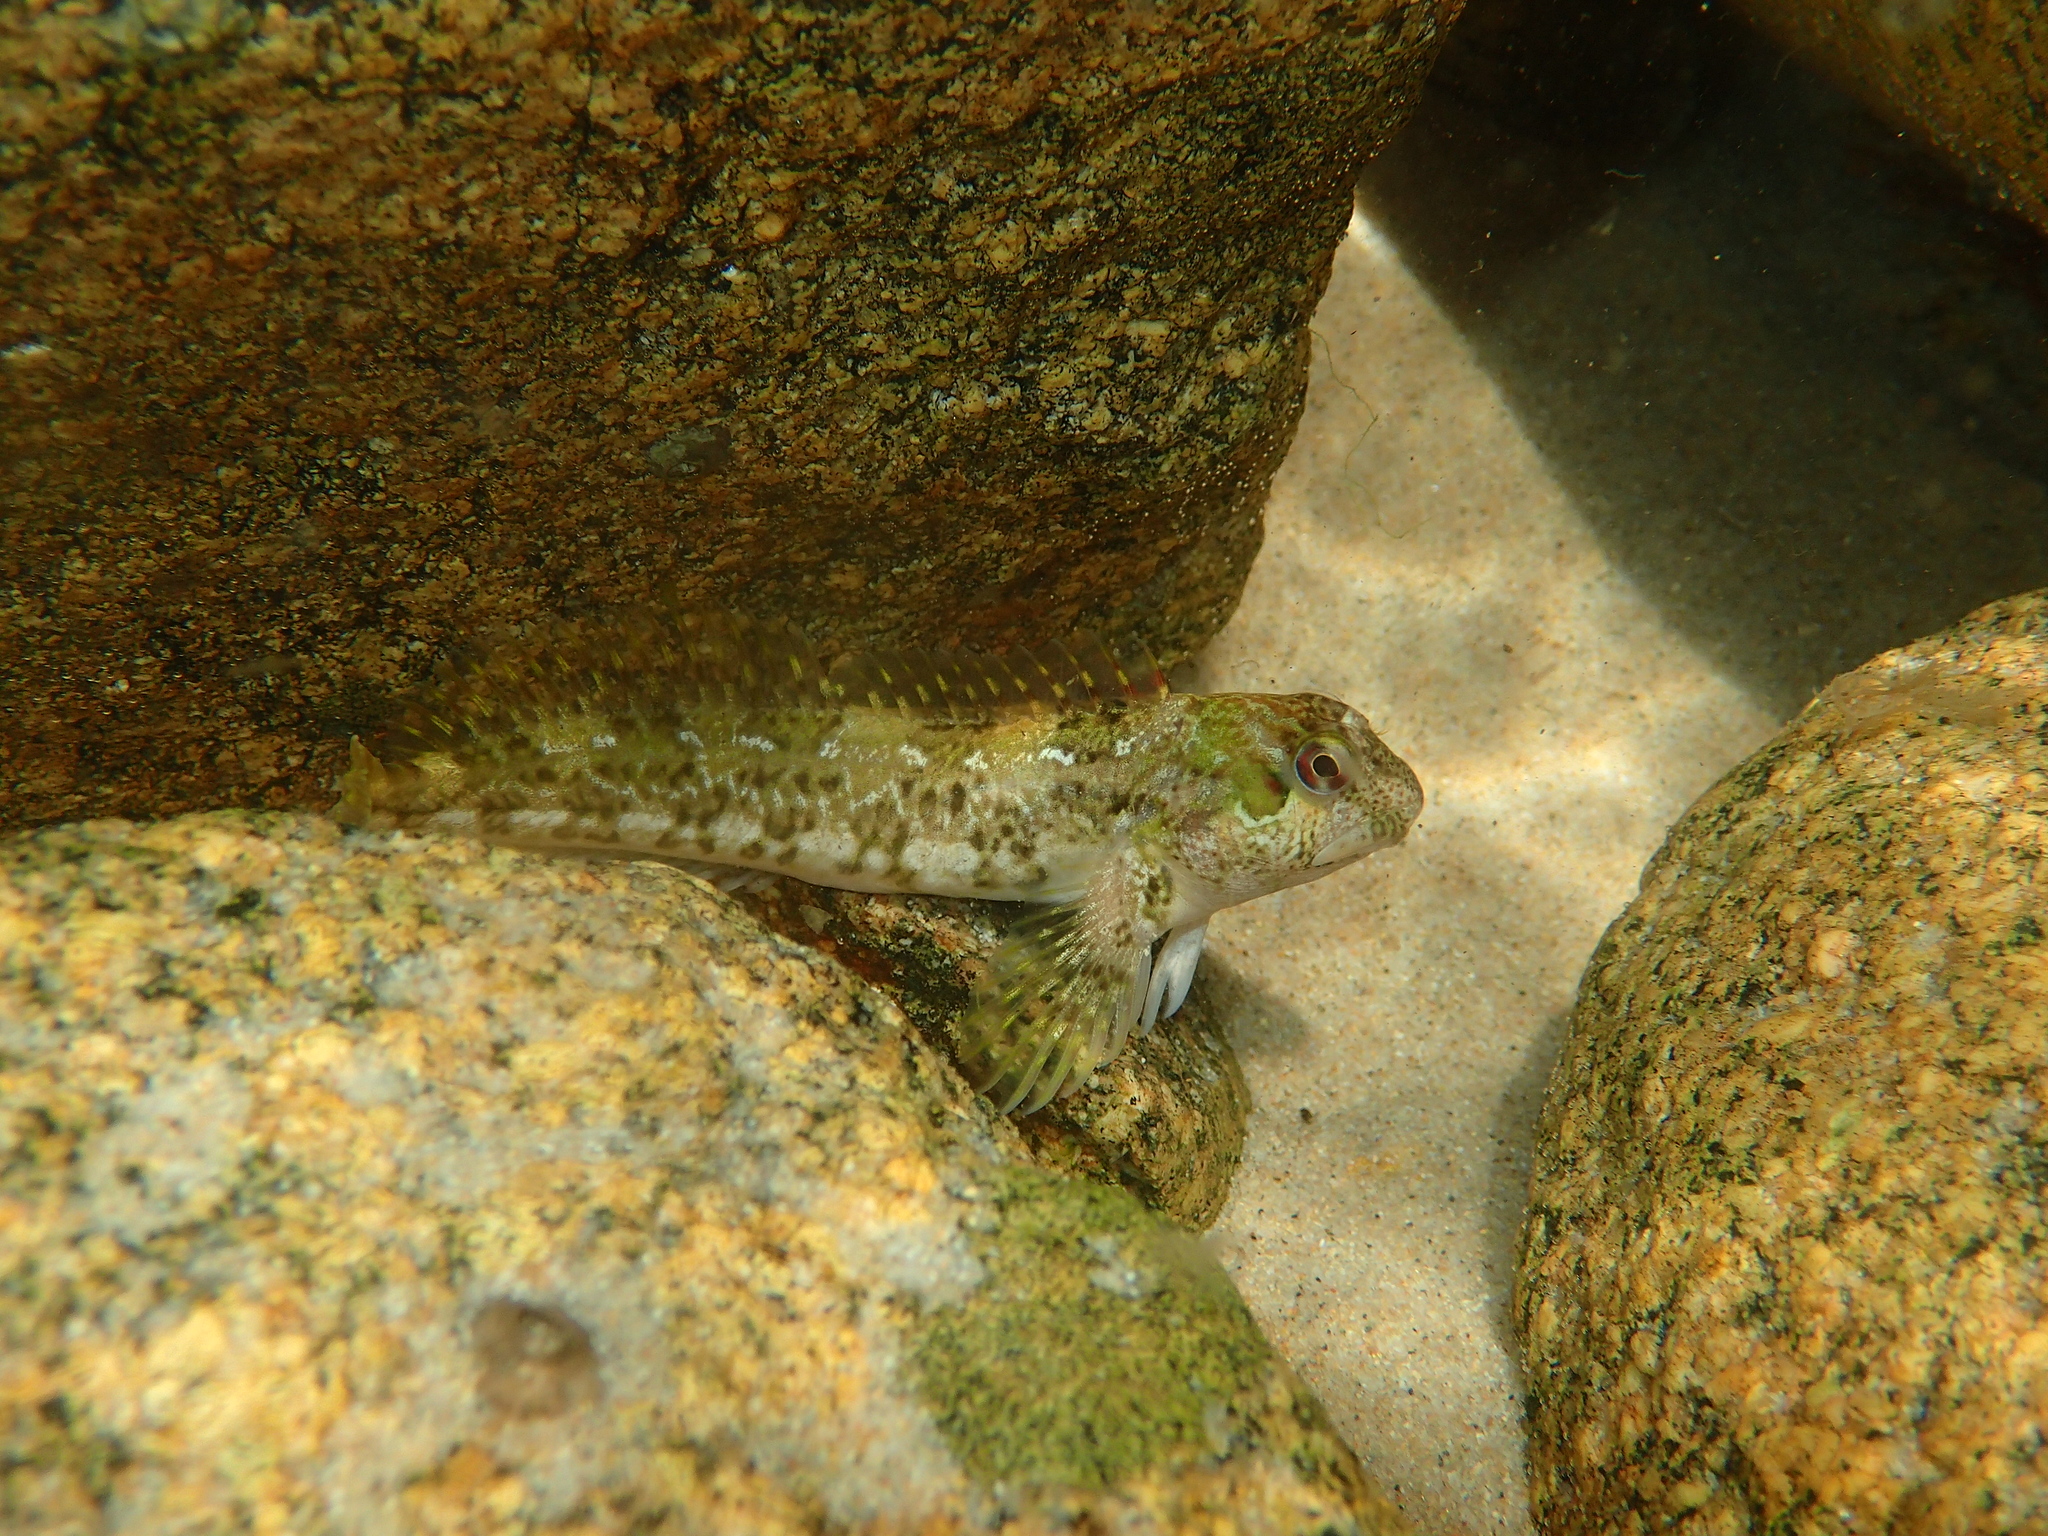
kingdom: Animalia
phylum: Chordata
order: Perciformes
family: Blenniidae
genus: Lipophrys
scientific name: Lipophrys pholis
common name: Shanny
